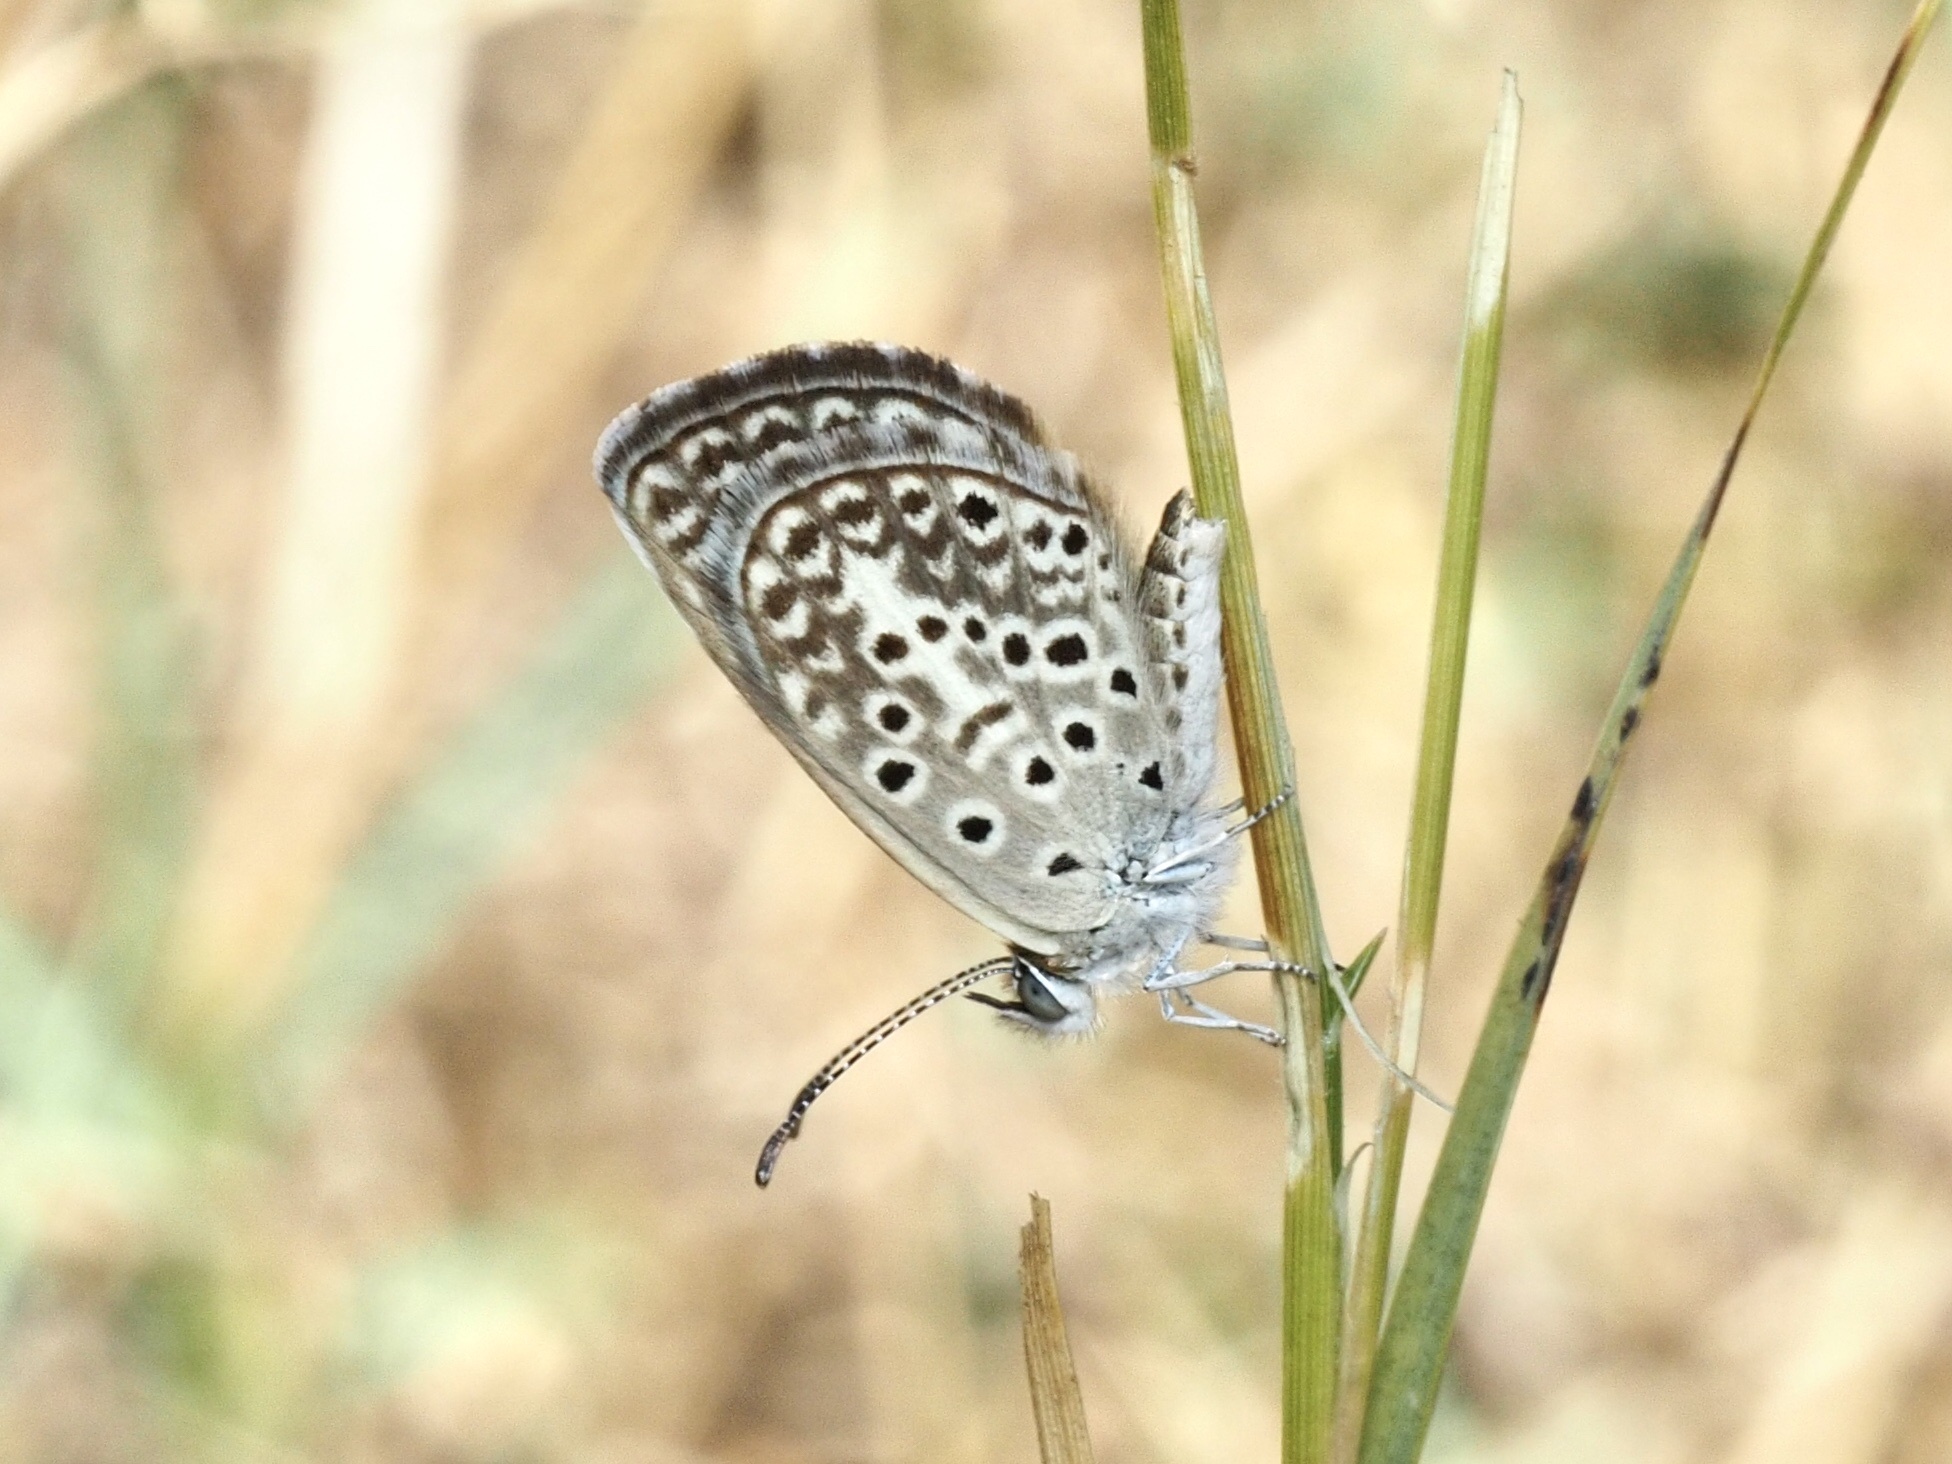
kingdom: Animalia
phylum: Arthropoda
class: Insecta
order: Lepidoptera
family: Lycaenidae
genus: Actizera
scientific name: Actizera lucida
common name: Rayed blue
